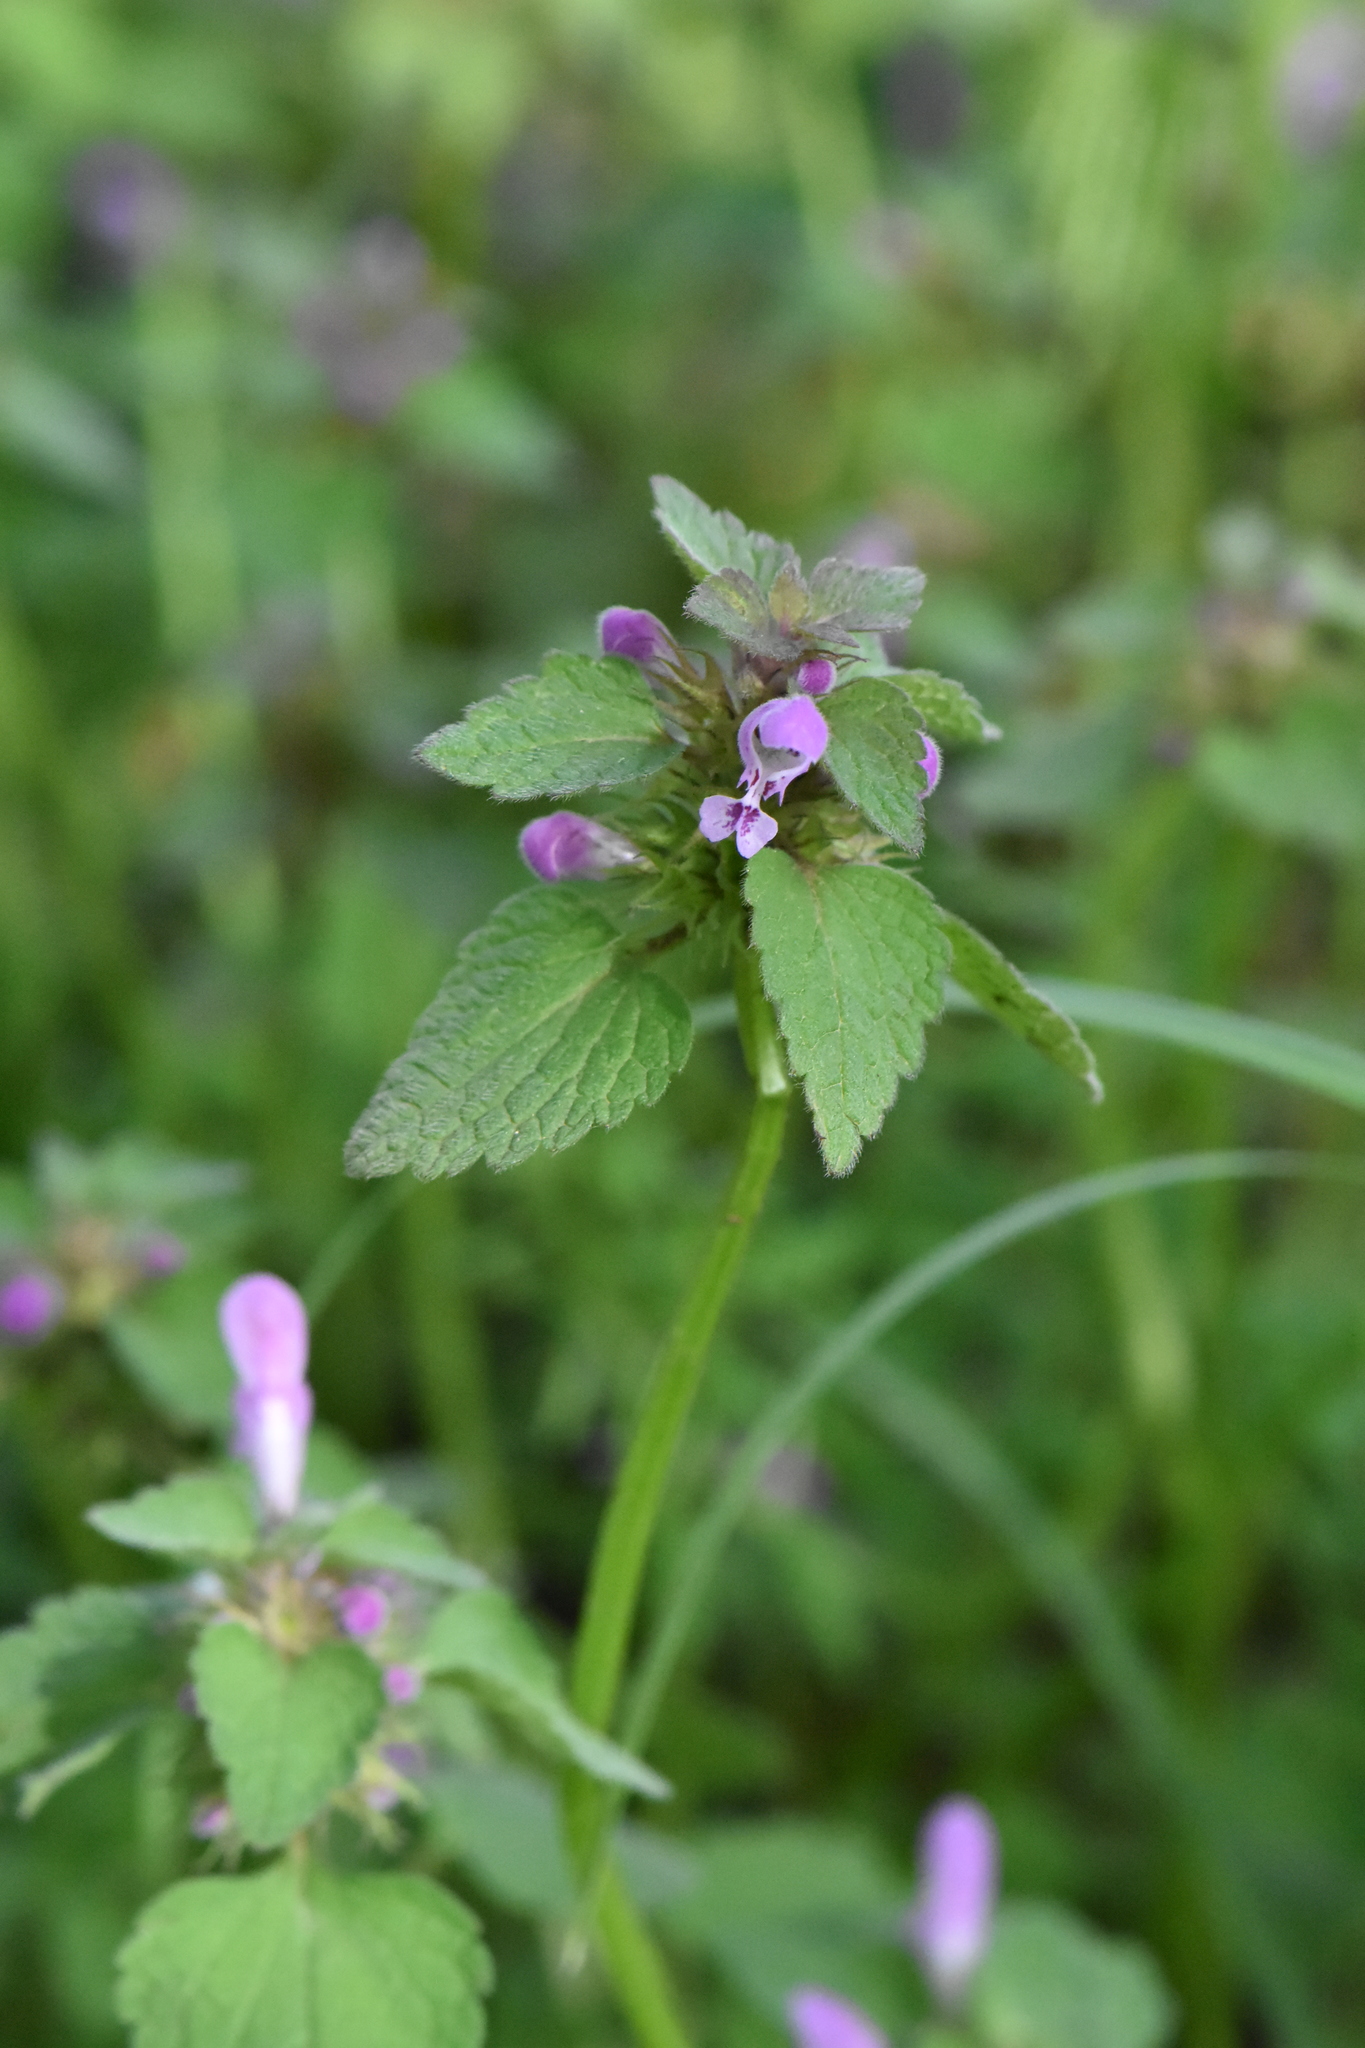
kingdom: Plantae
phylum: Tracheophyta
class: Magnoliopsida
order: Lamiales
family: Lamiaceae
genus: Lamium
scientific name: Lamium purpureum
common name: Red dead-nettle
